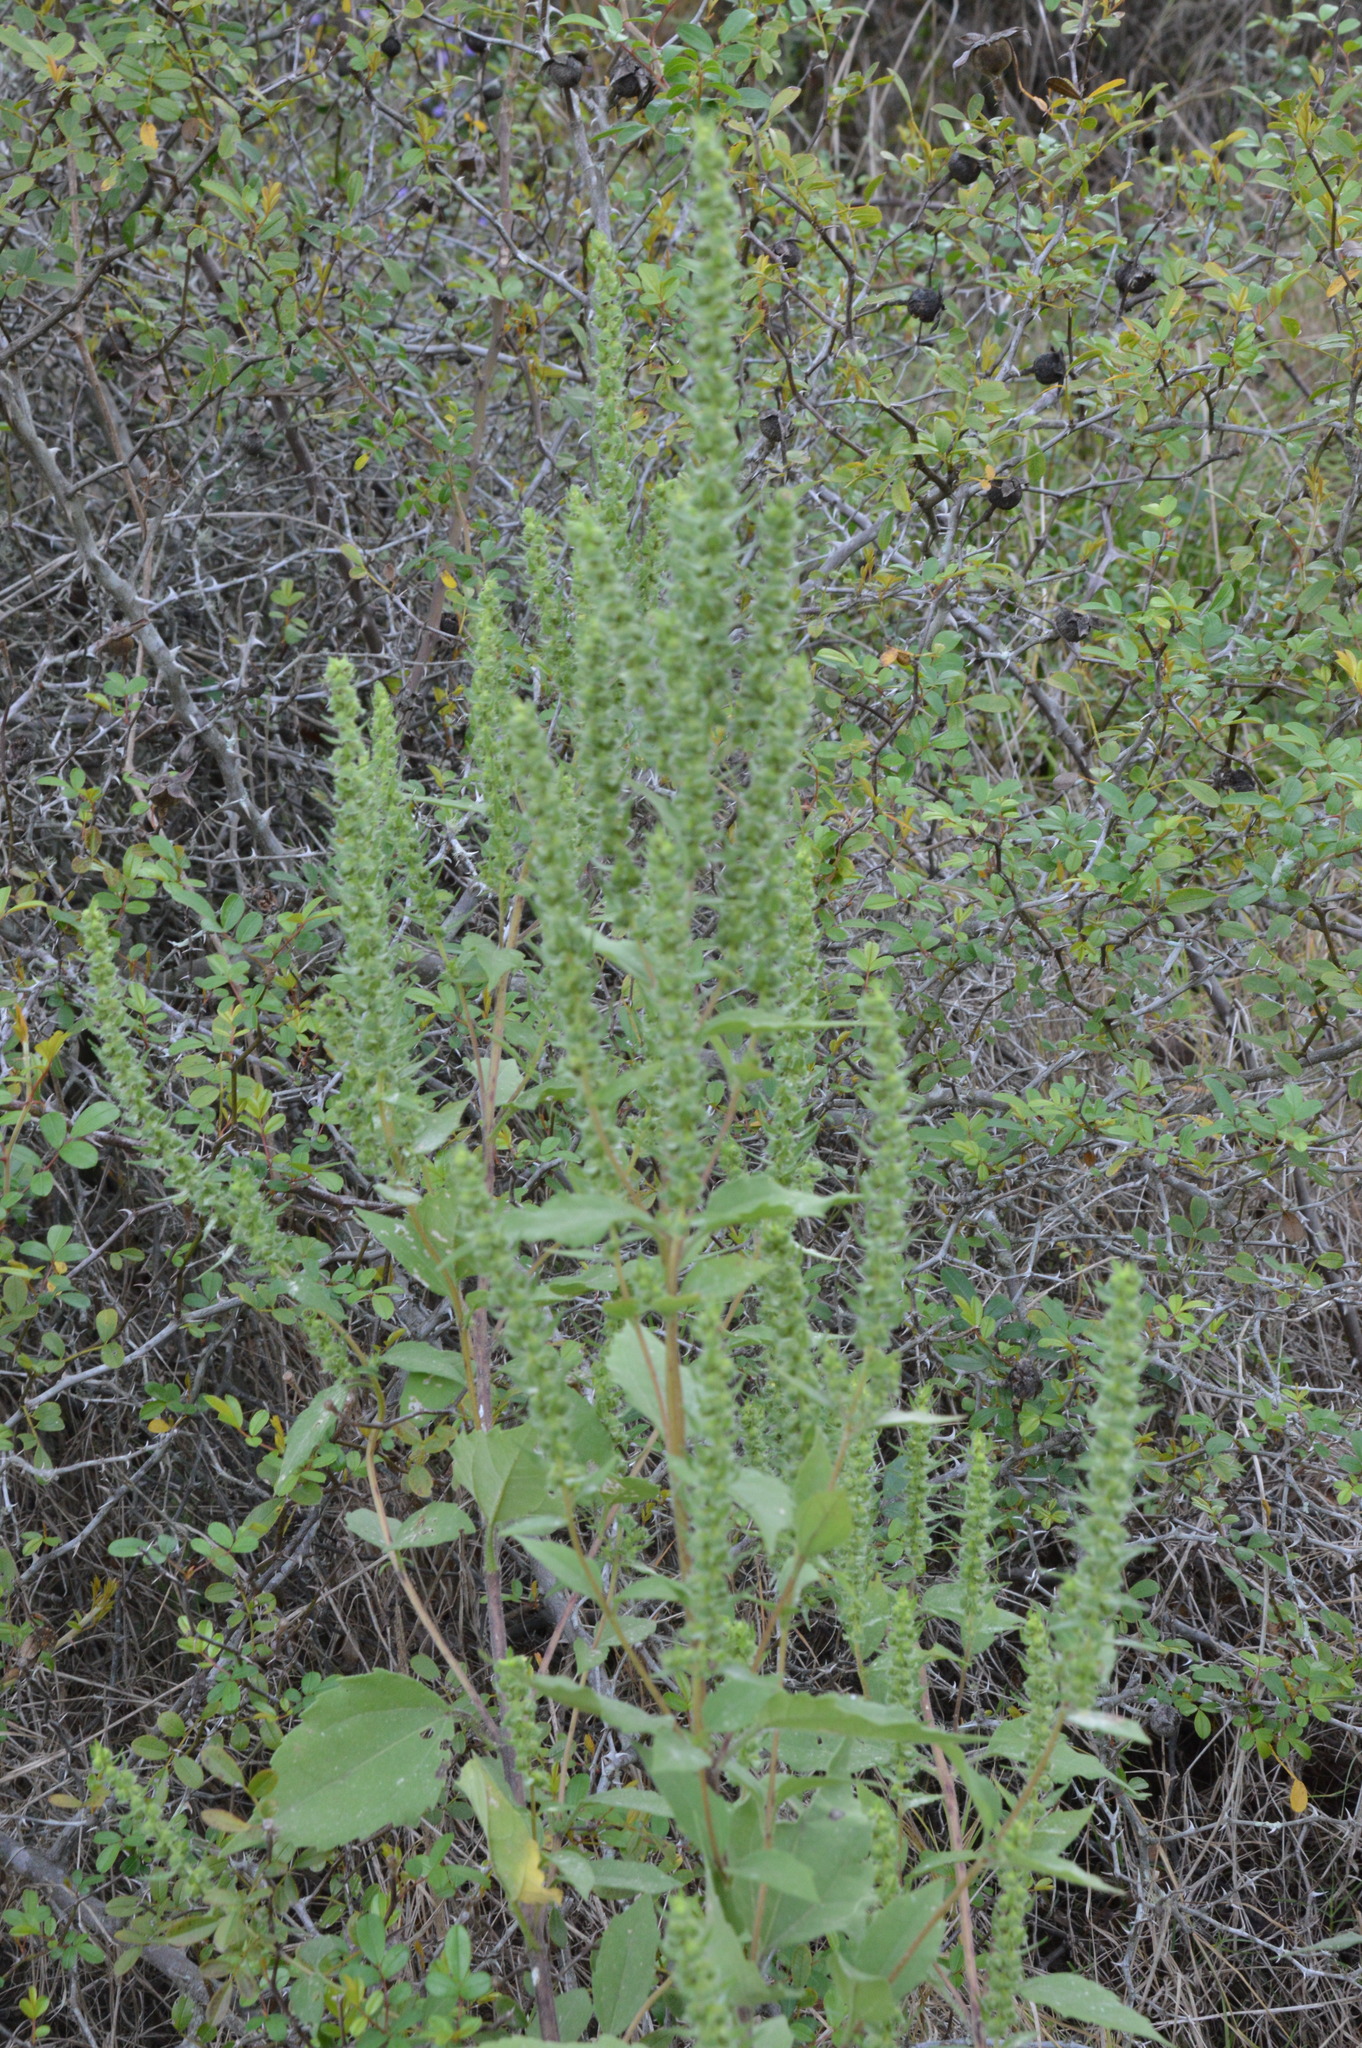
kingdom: Plantae
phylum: Tracheophyta
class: Magnoliopsida
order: Asterales
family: Asteraceae
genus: Iva
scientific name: Iva annua
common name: Marsh-elder
